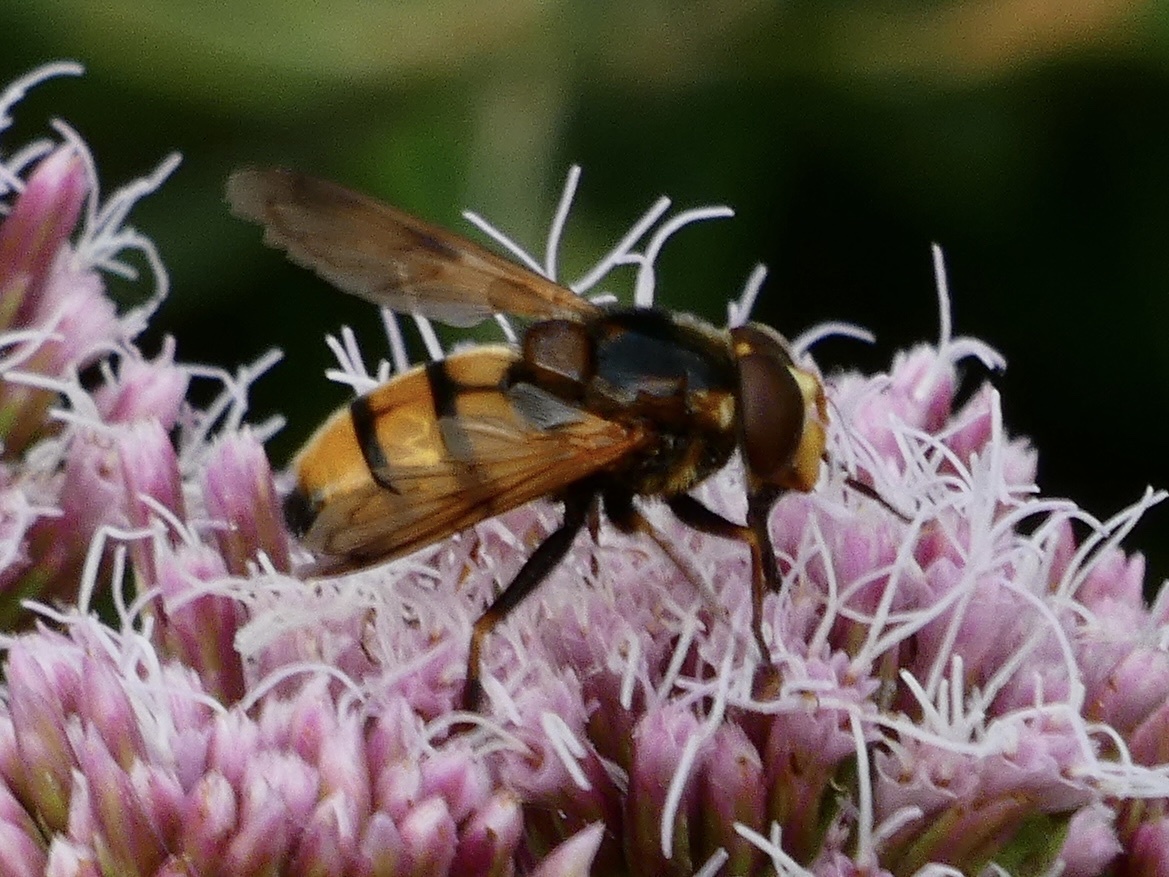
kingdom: Animalia
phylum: Arthropoda
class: Insecta
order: Diptera
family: Syrphidae
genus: Volucella
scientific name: Volucella inanis
